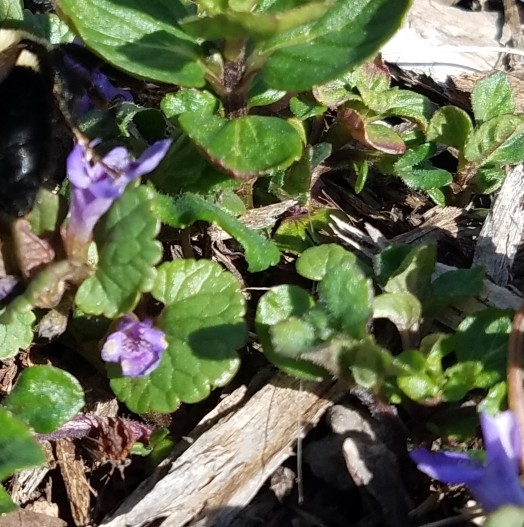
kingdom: Plantae
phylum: Tracheophyta
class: Magnoliopsida
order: Lamiales
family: Lamiaceae
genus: Glechoma
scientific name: Glechoma hederacea
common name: Ground ivy
